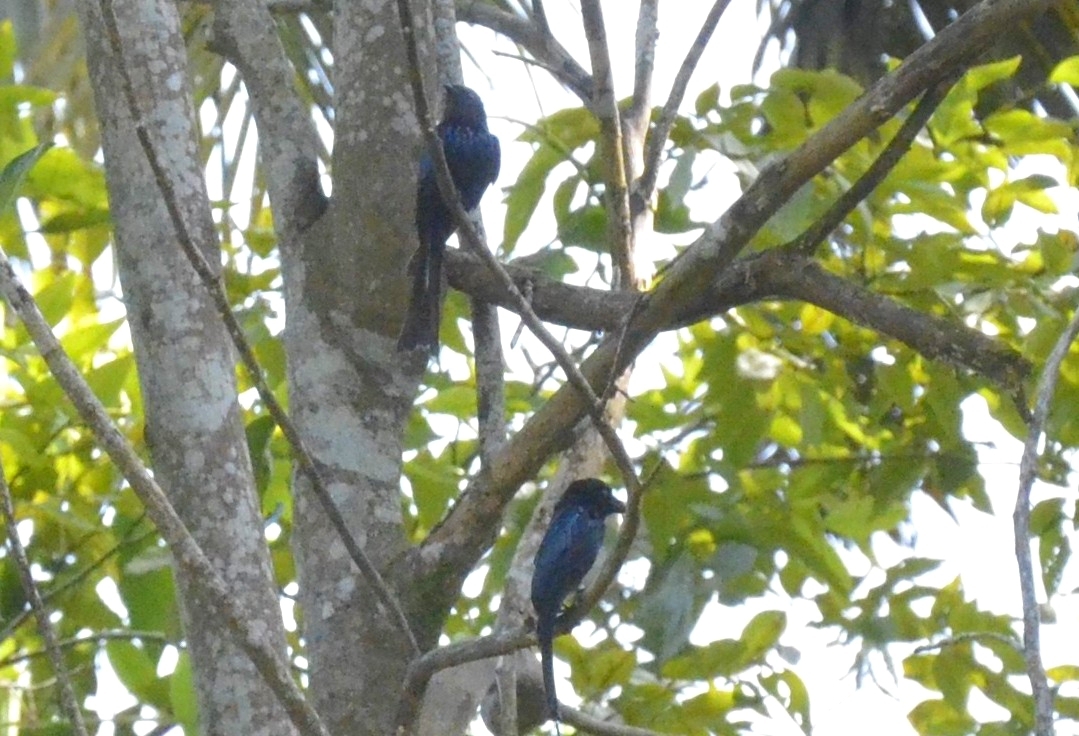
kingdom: Animalia
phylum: Chordata
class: Aves
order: Passeriformes
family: Dicruridae
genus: Dicrurus
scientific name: Dicrurus aeneus
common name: Bronzed drongo
